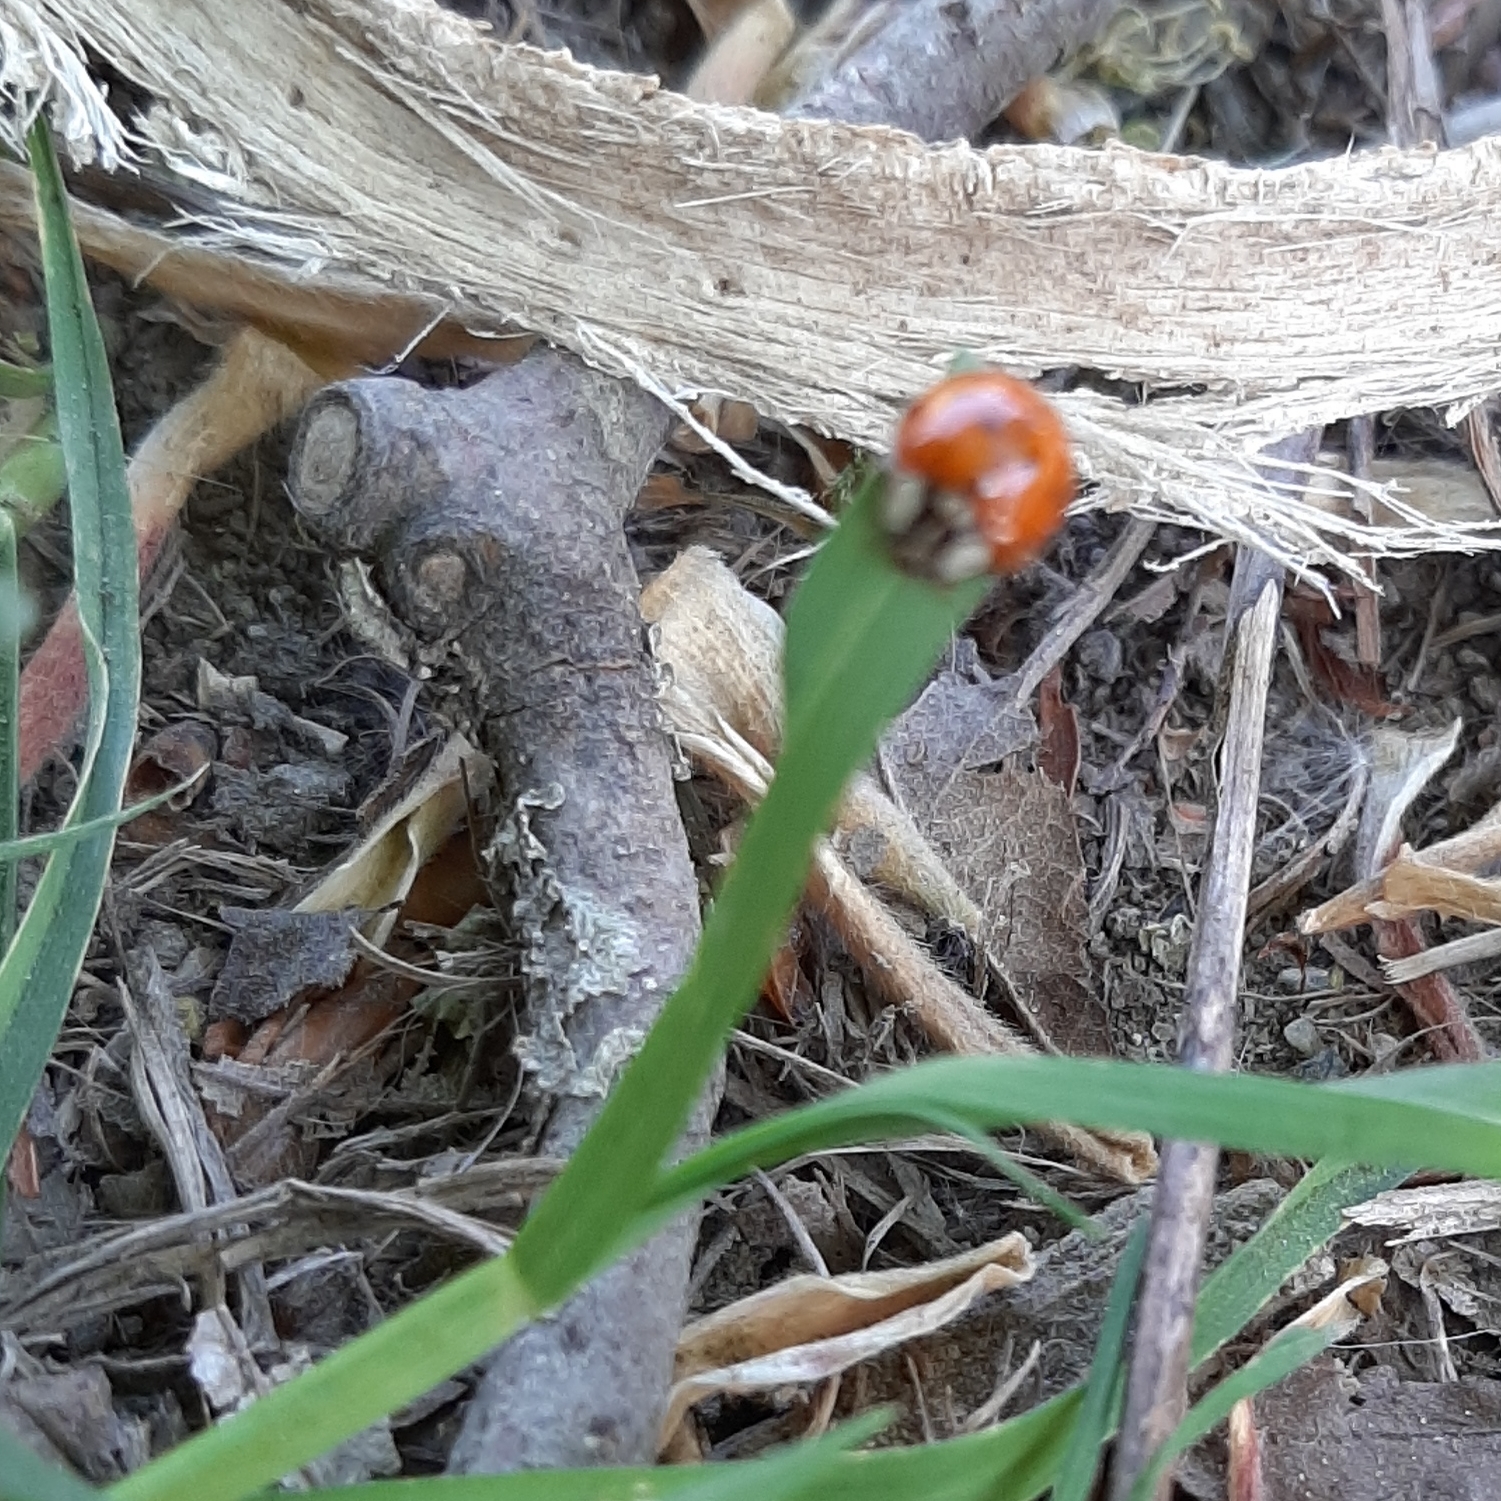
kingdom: Animalia
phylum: Arthropoda
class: Insecta
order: Coleoptera
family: Coccinellidae
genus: Harmonia
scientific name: Harmonia axyridis
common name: Harlequin ladybird
